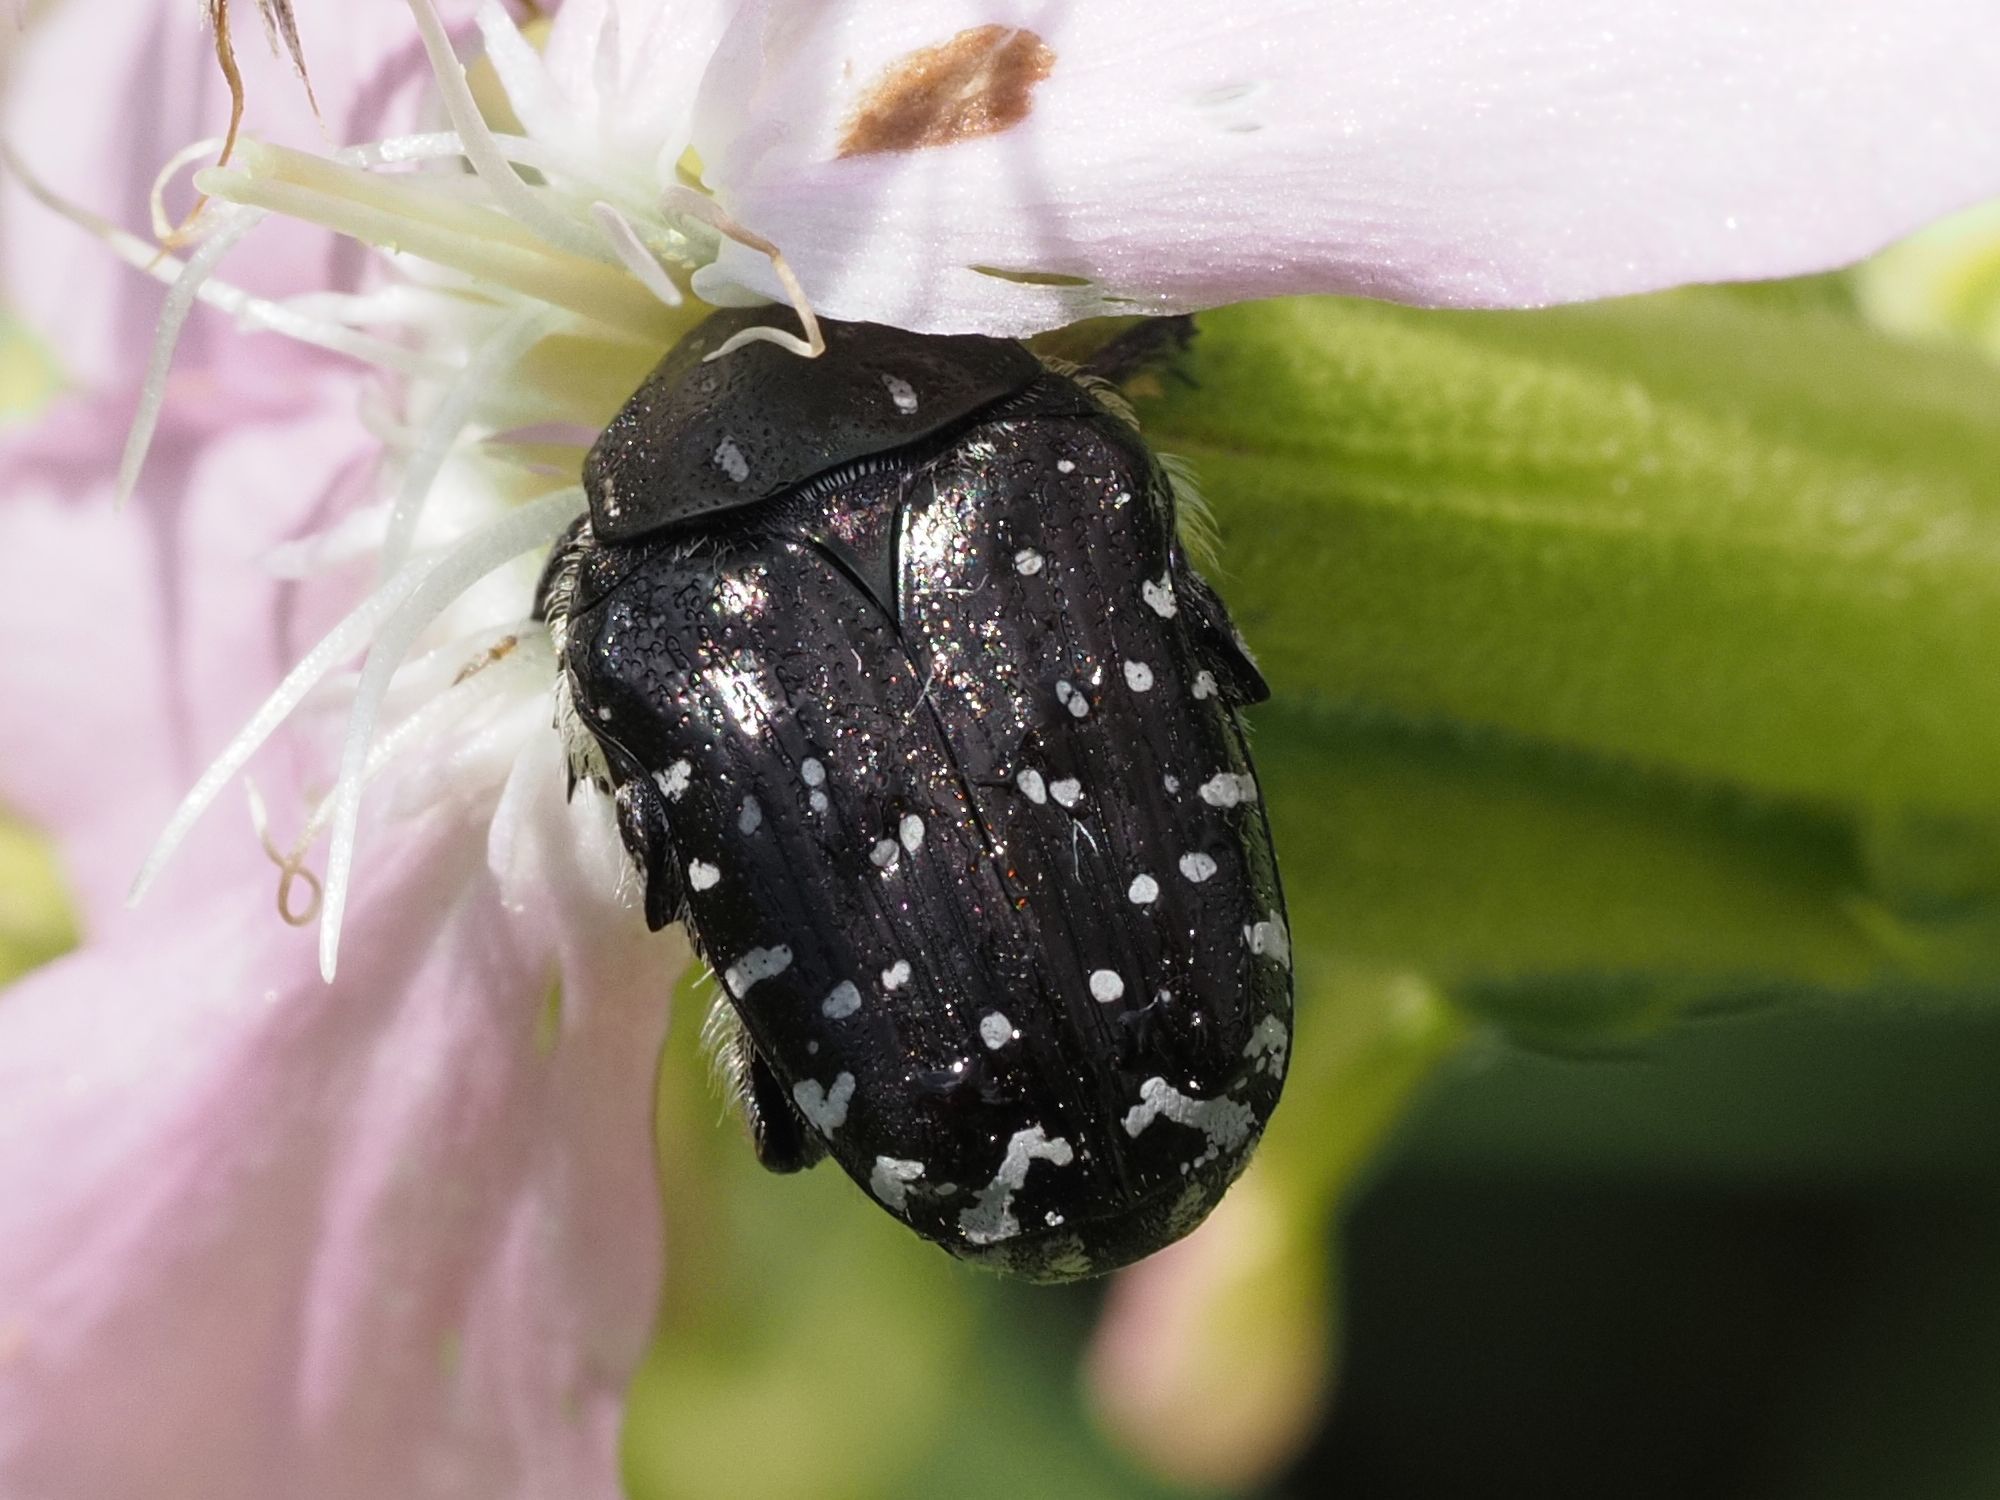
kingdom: Animalia
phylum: Arthropoda
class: Insecta
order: Coleoptera
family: Scarabaeidae
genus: Oxythyrea
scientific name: Oxythyrea funesta
